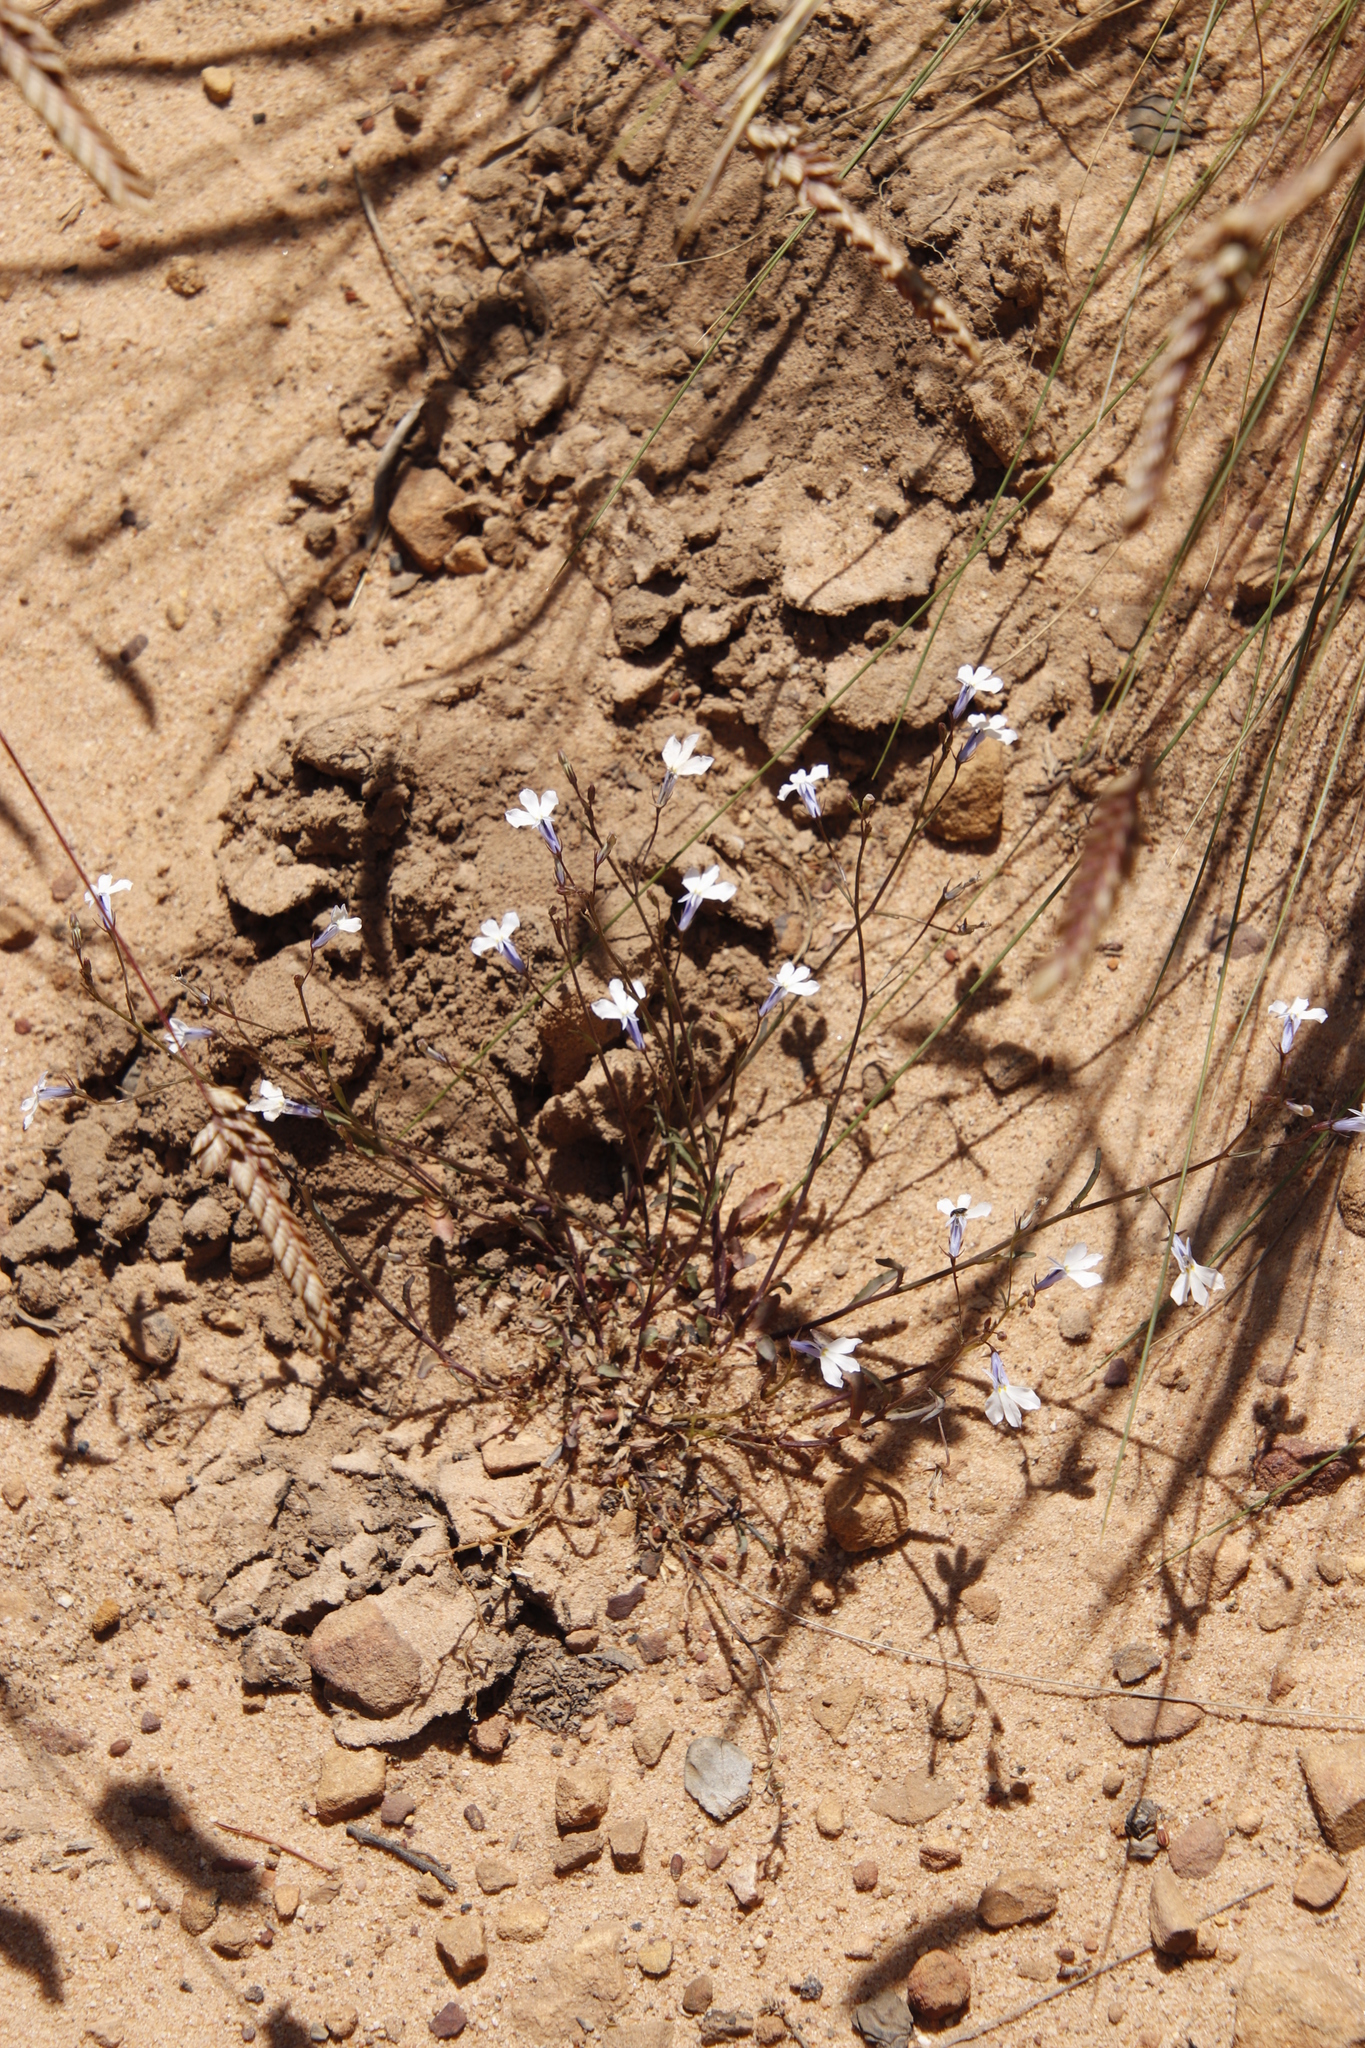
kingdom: Plantae
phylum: Tracheophyta
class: Magnoliopsida
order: Asterales
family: Campanulaceae
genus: Lobelia
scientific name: Lobelia erinus
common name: Edging lobelia
